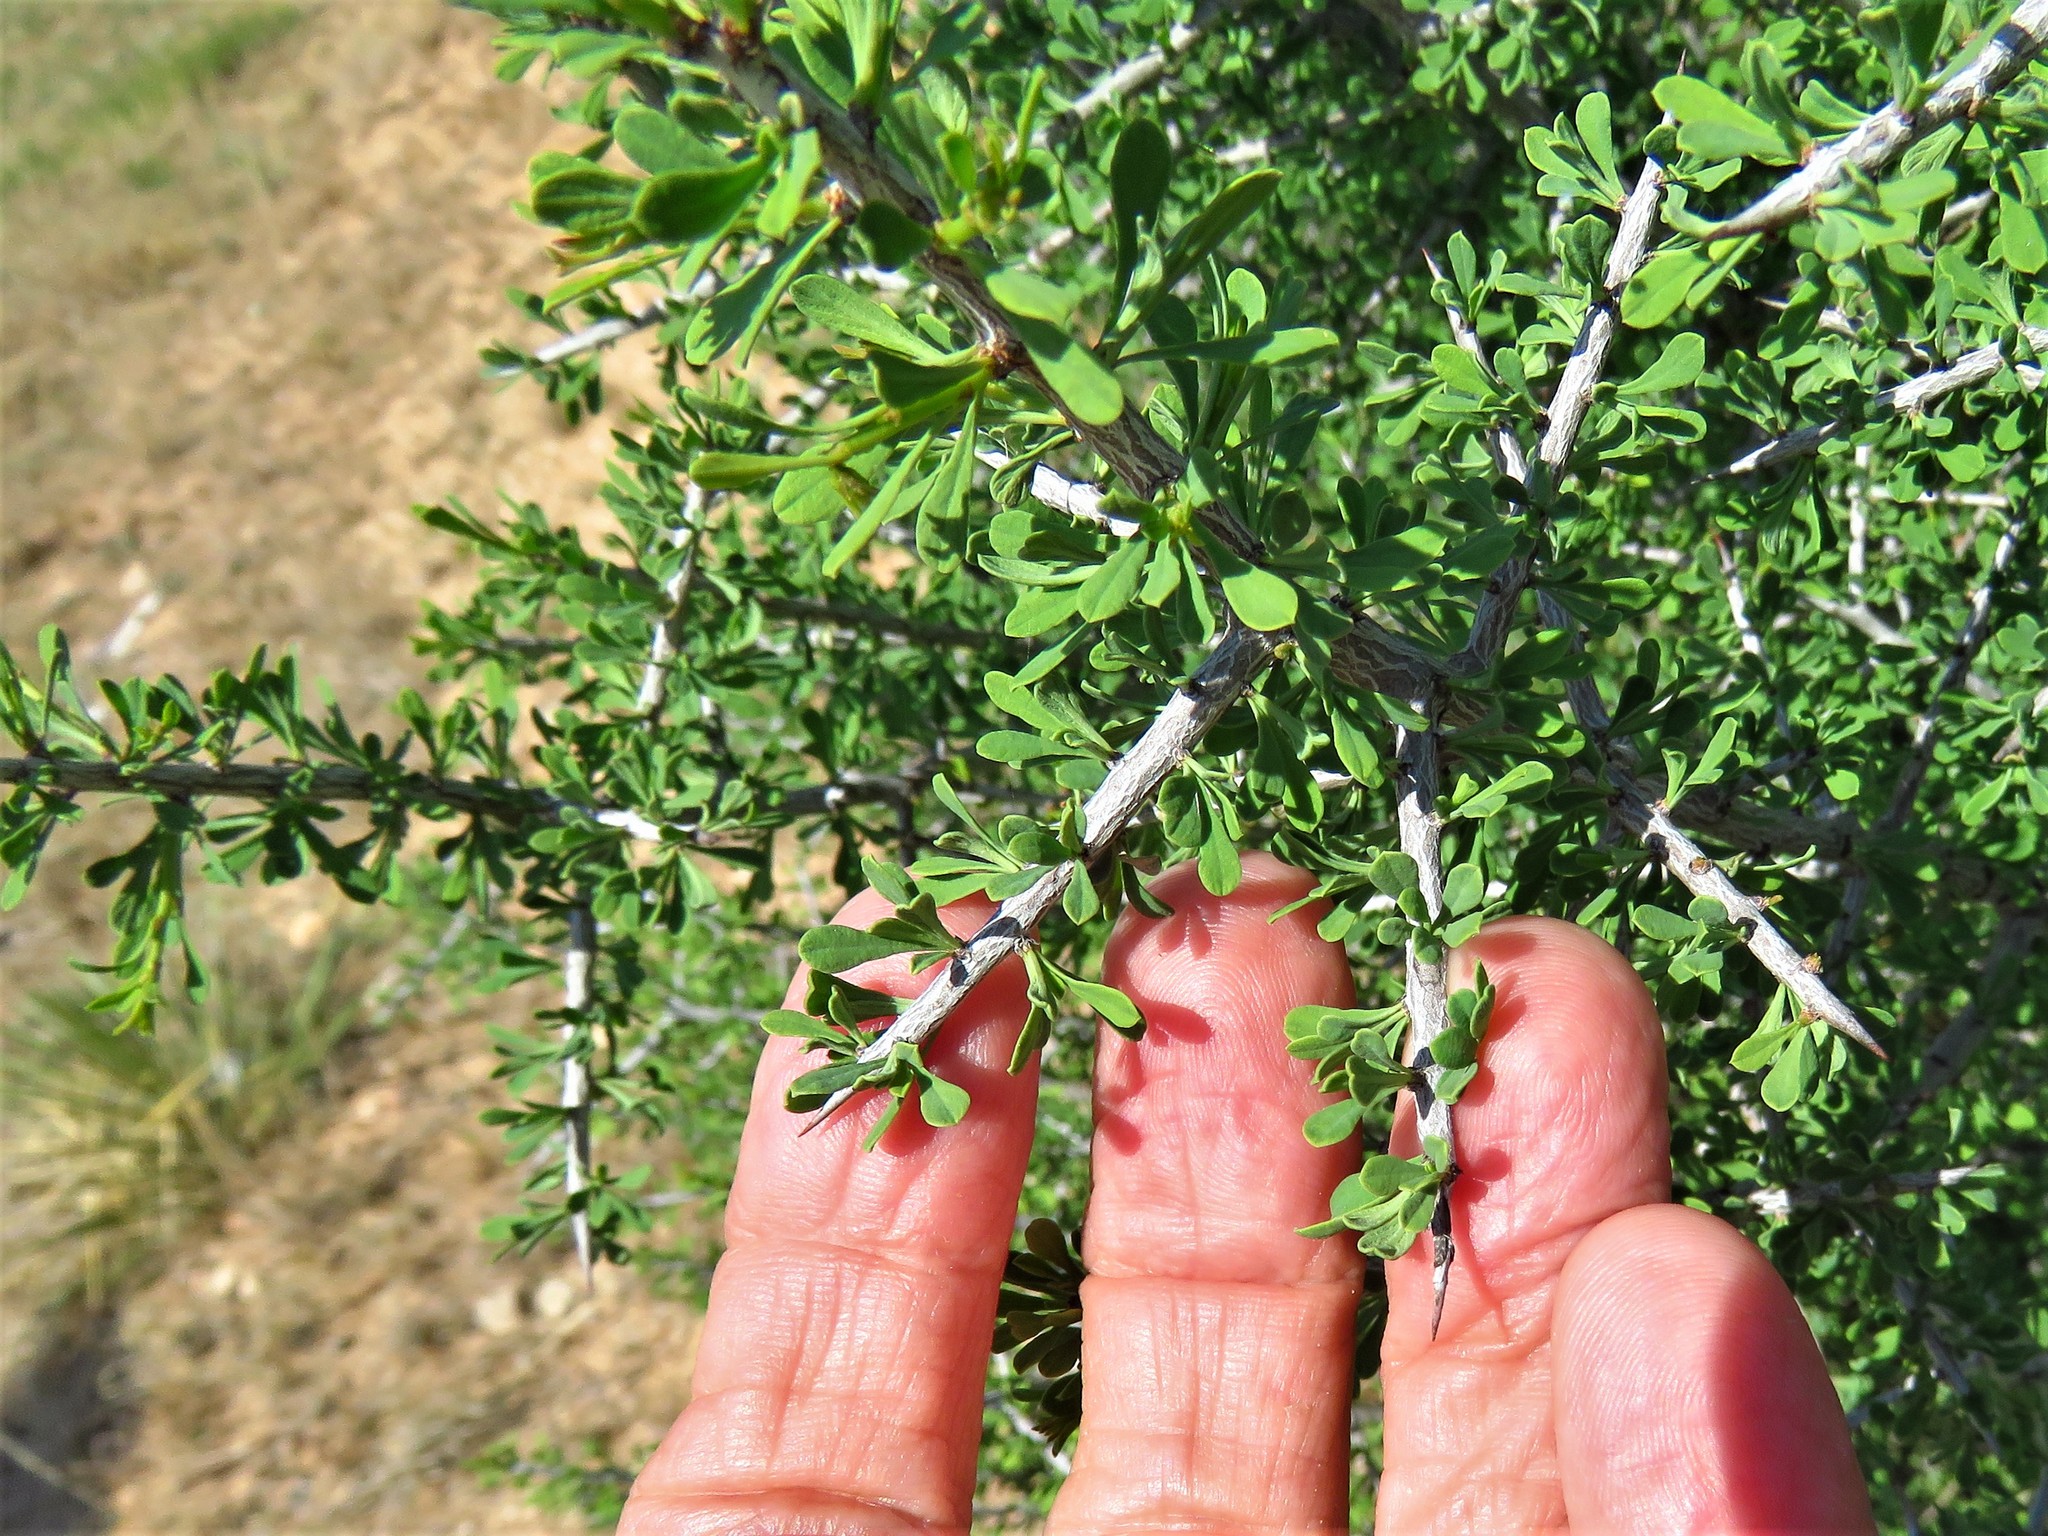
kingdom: Plantae
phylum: Tracheophyta
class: Magnoliopsida
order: Rosales
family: Rhamnaceae
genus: Condalia
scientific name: Condalia spathulata
